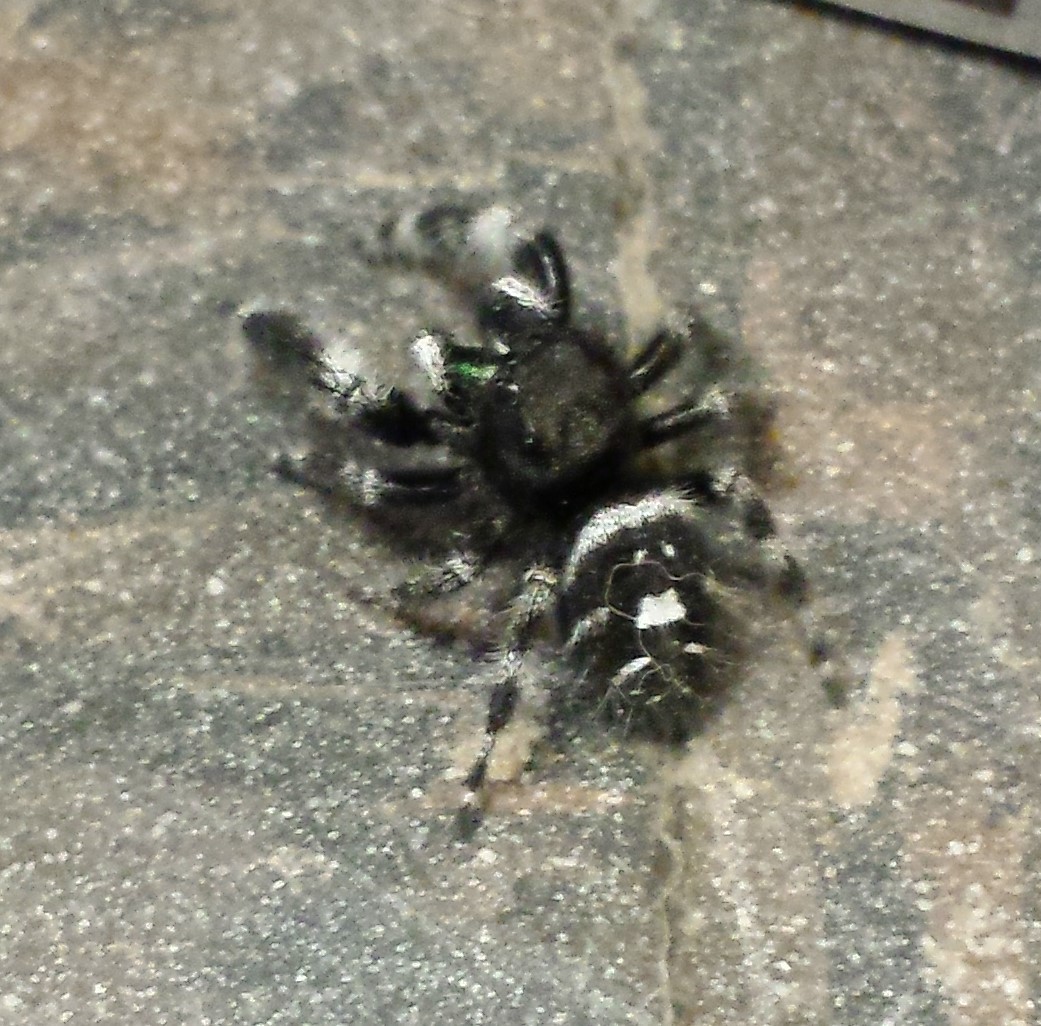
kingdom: Animalia
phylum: Arthropoda
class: Arachnida
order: Araneae
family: Salticidae
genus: Phidippus
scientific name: Phidippus audax
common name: Bold jumper
